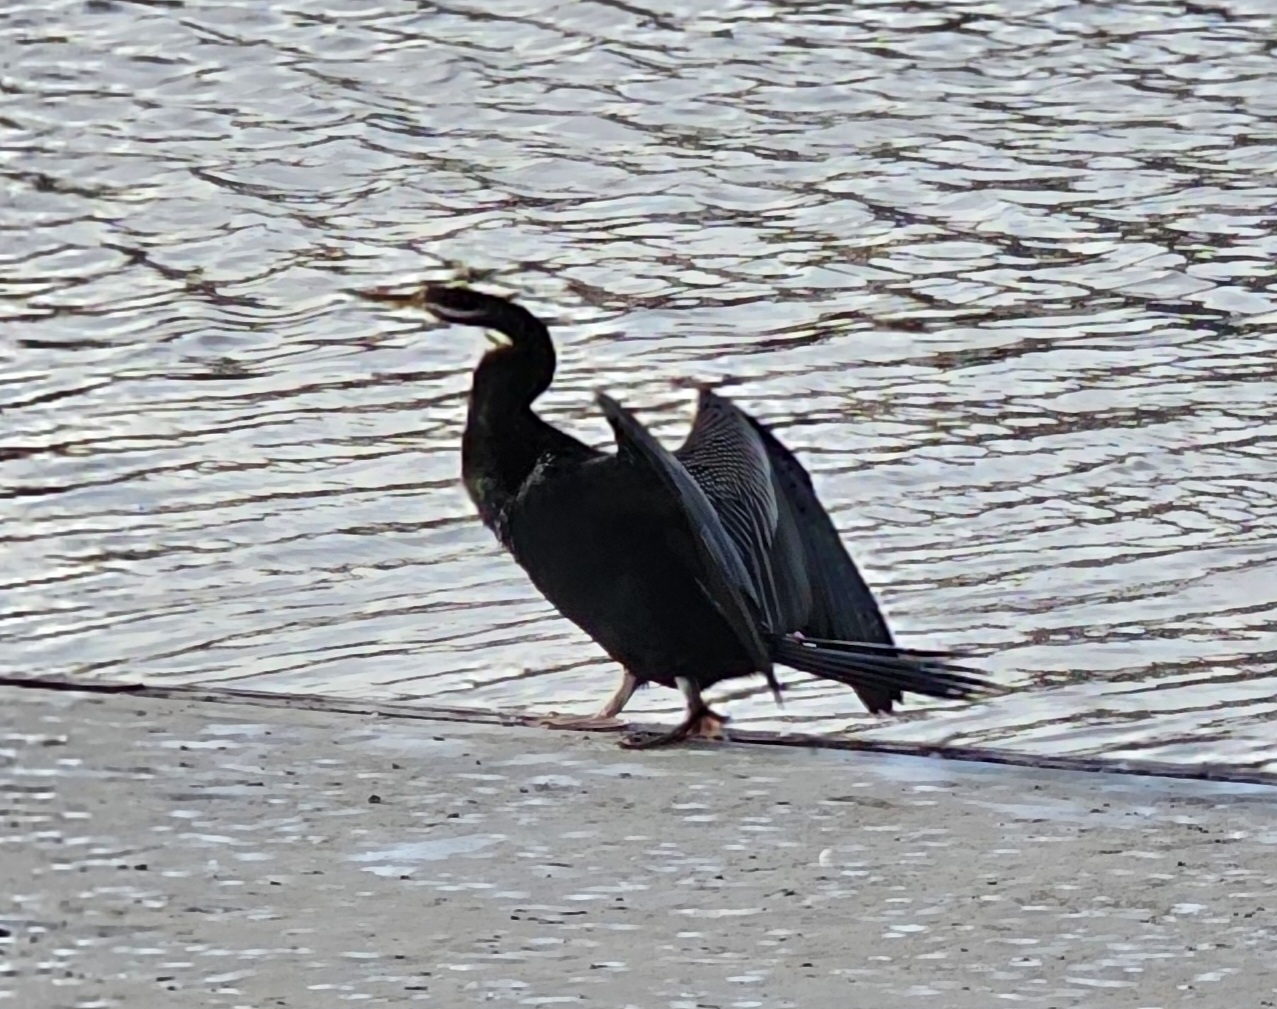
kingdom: Animalia
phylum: Chordata
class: Aves
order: Suliformes
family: Anhingidae
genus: Anhinga
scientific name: Anhinga novaehollandiae
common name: Australasian darter
